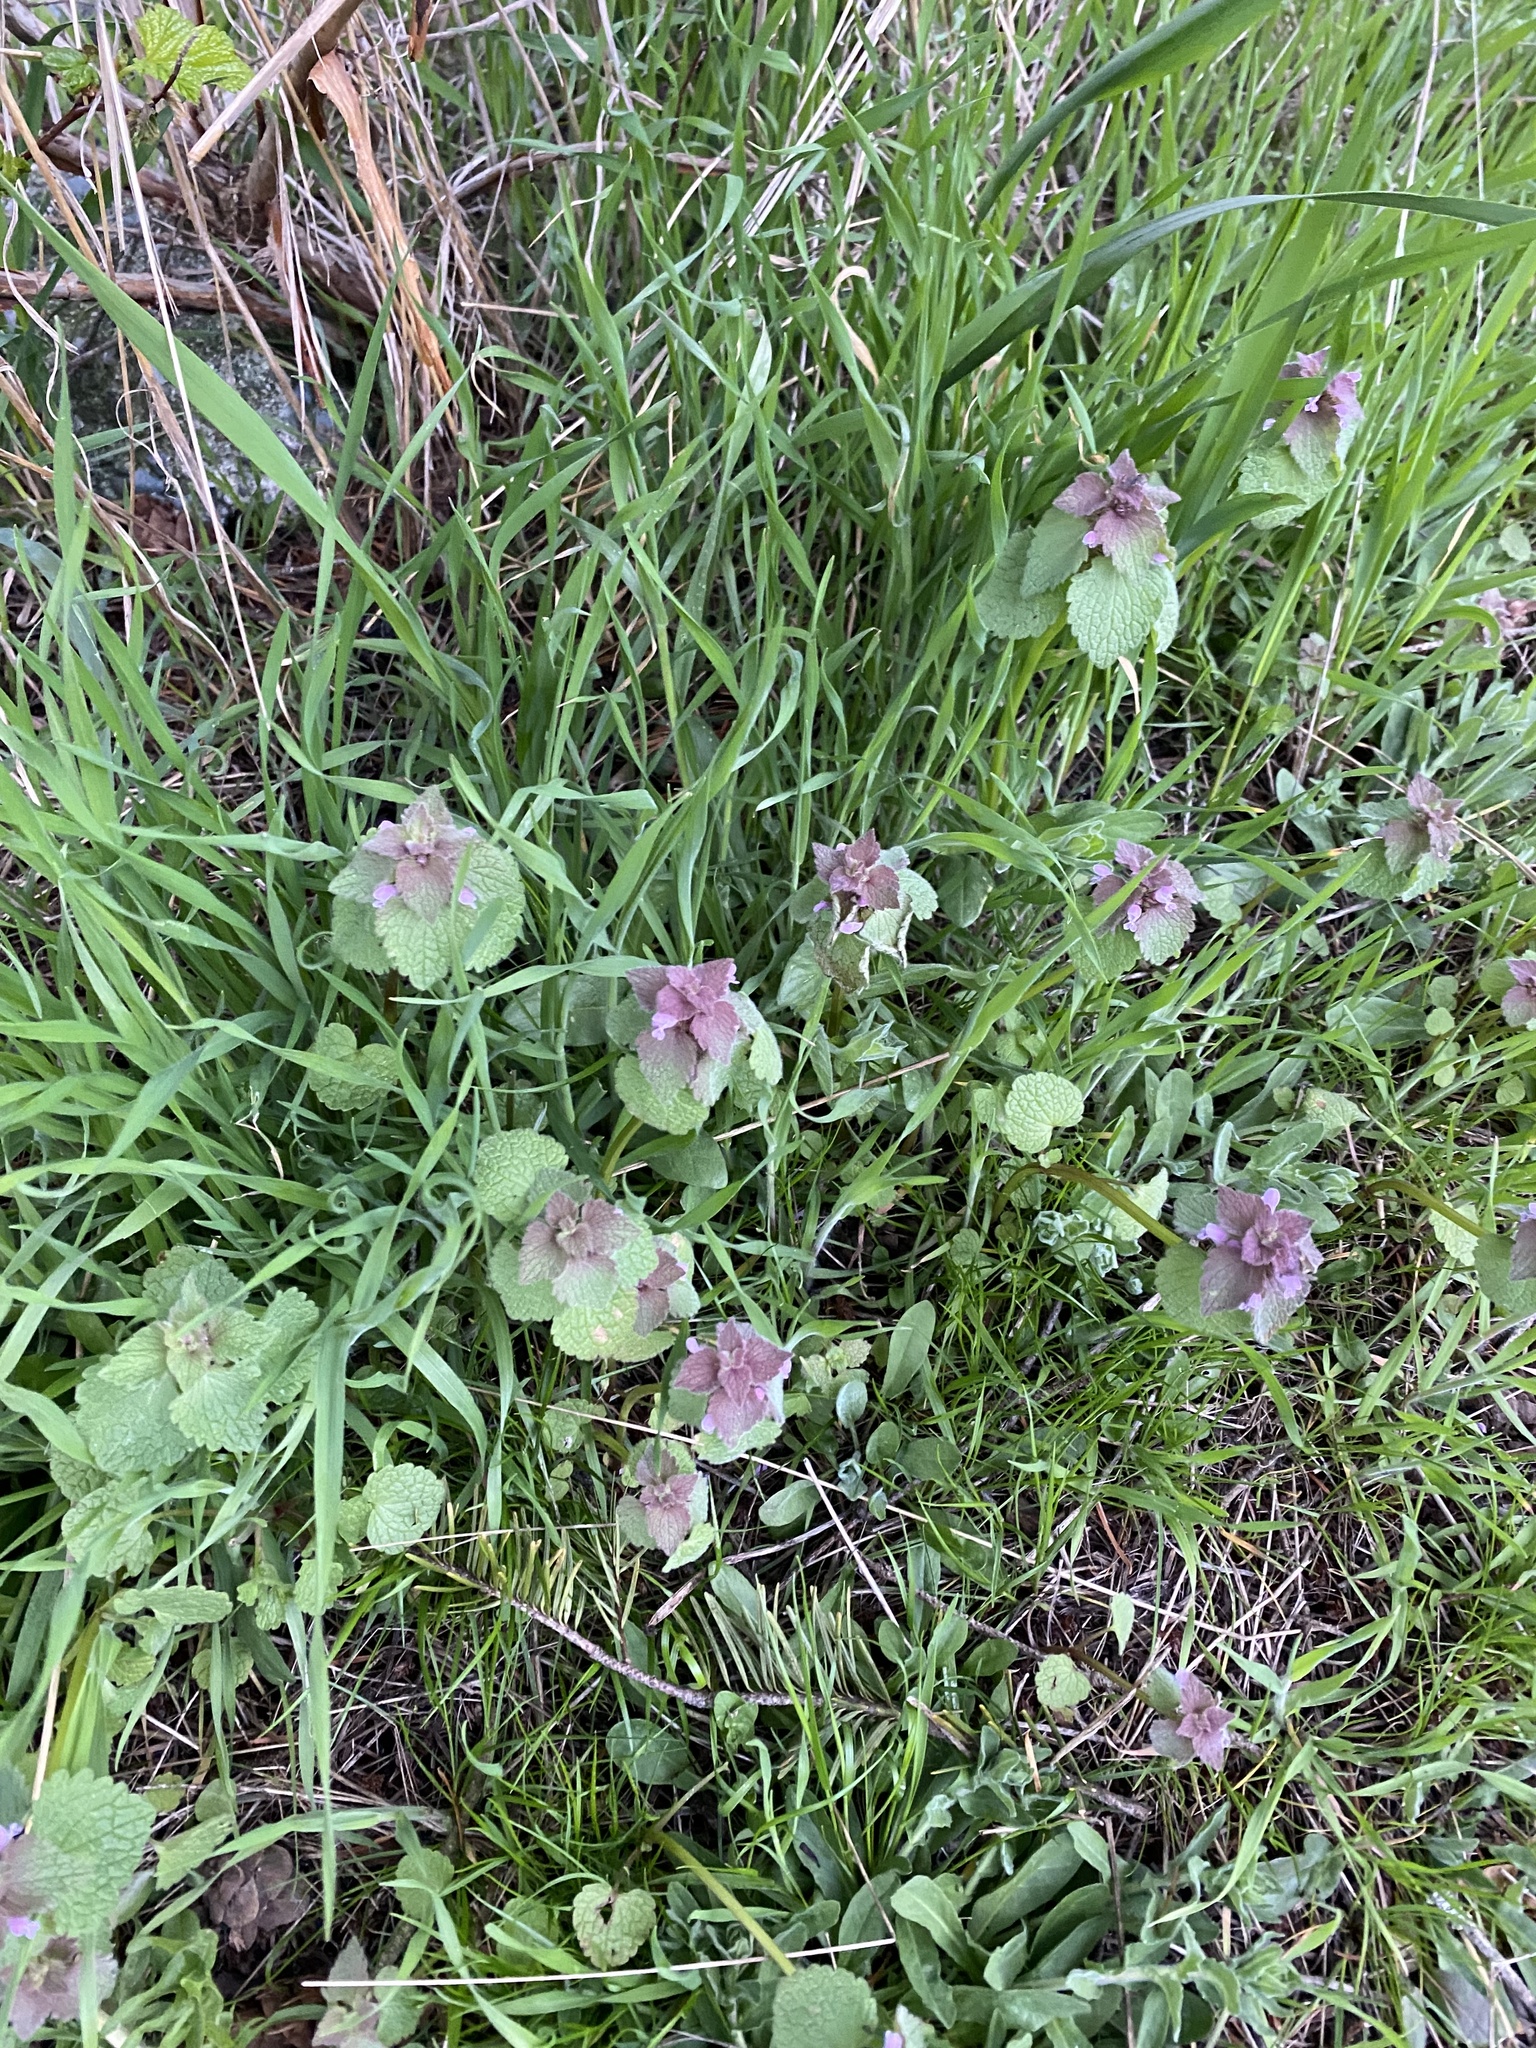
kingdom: Plantae
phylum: Tracheophyta
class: Magnoliopsida
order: Lamiales
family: Lamiaceae
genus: Lamium
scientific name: Lamium purpureum
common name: Red dead-nettle
